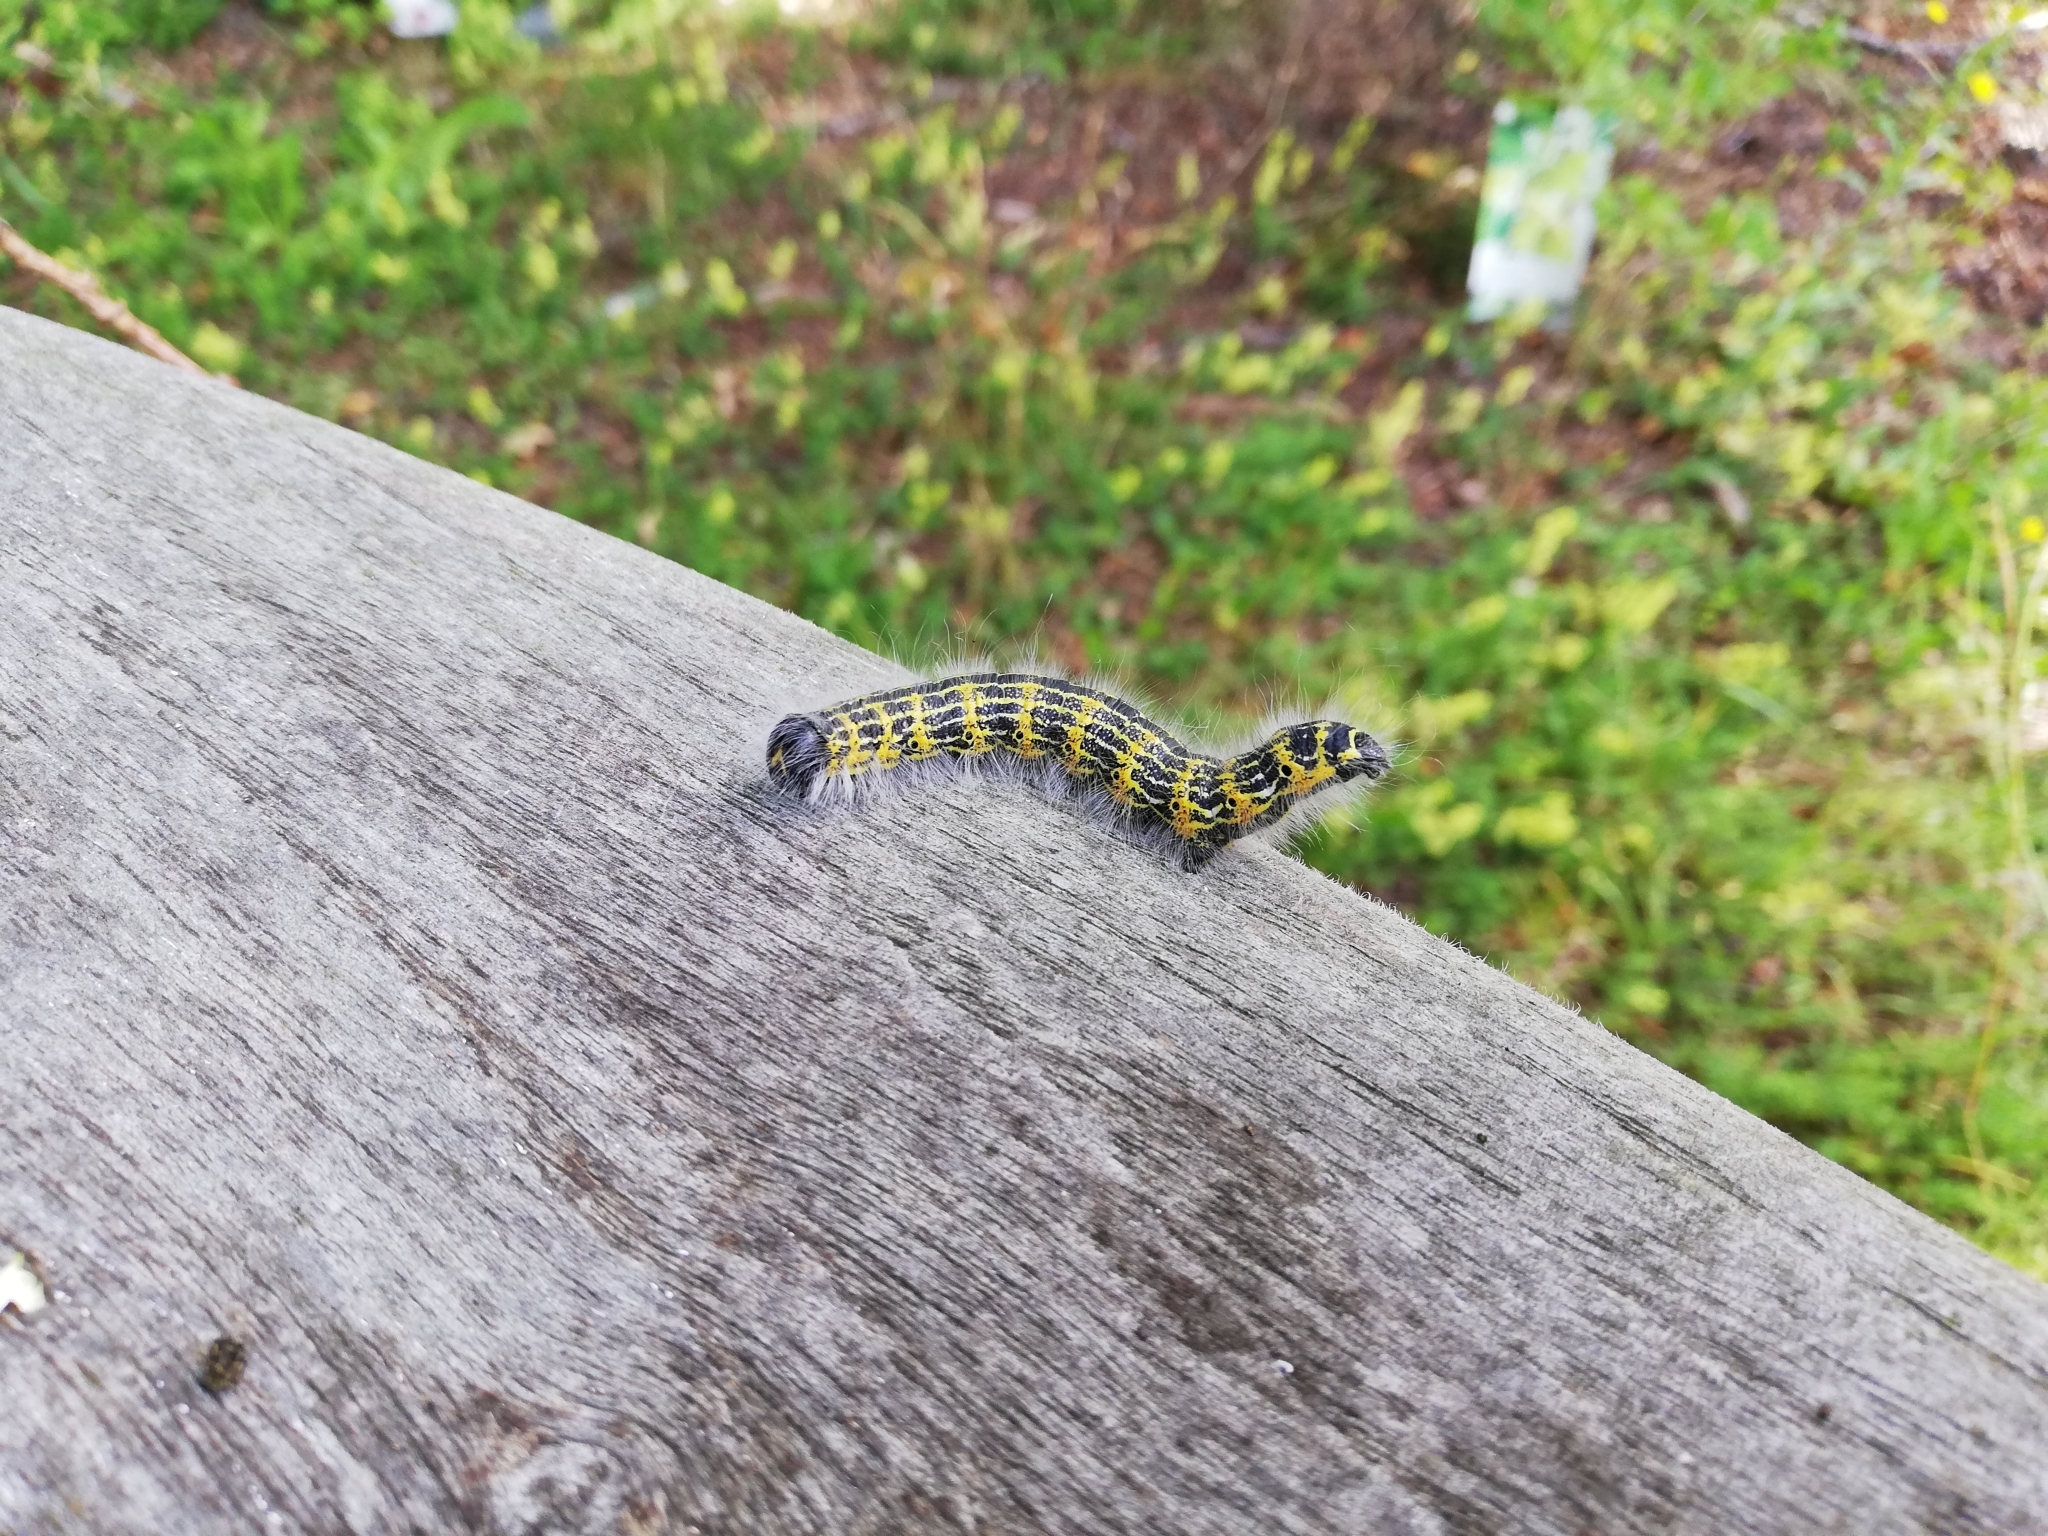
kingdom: Animalia
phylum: Arthropoda
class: Insecta
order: Lepidoptera
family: Notodontidae
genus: Phalera
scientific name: Phalera bucephala
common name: Buff-tip
